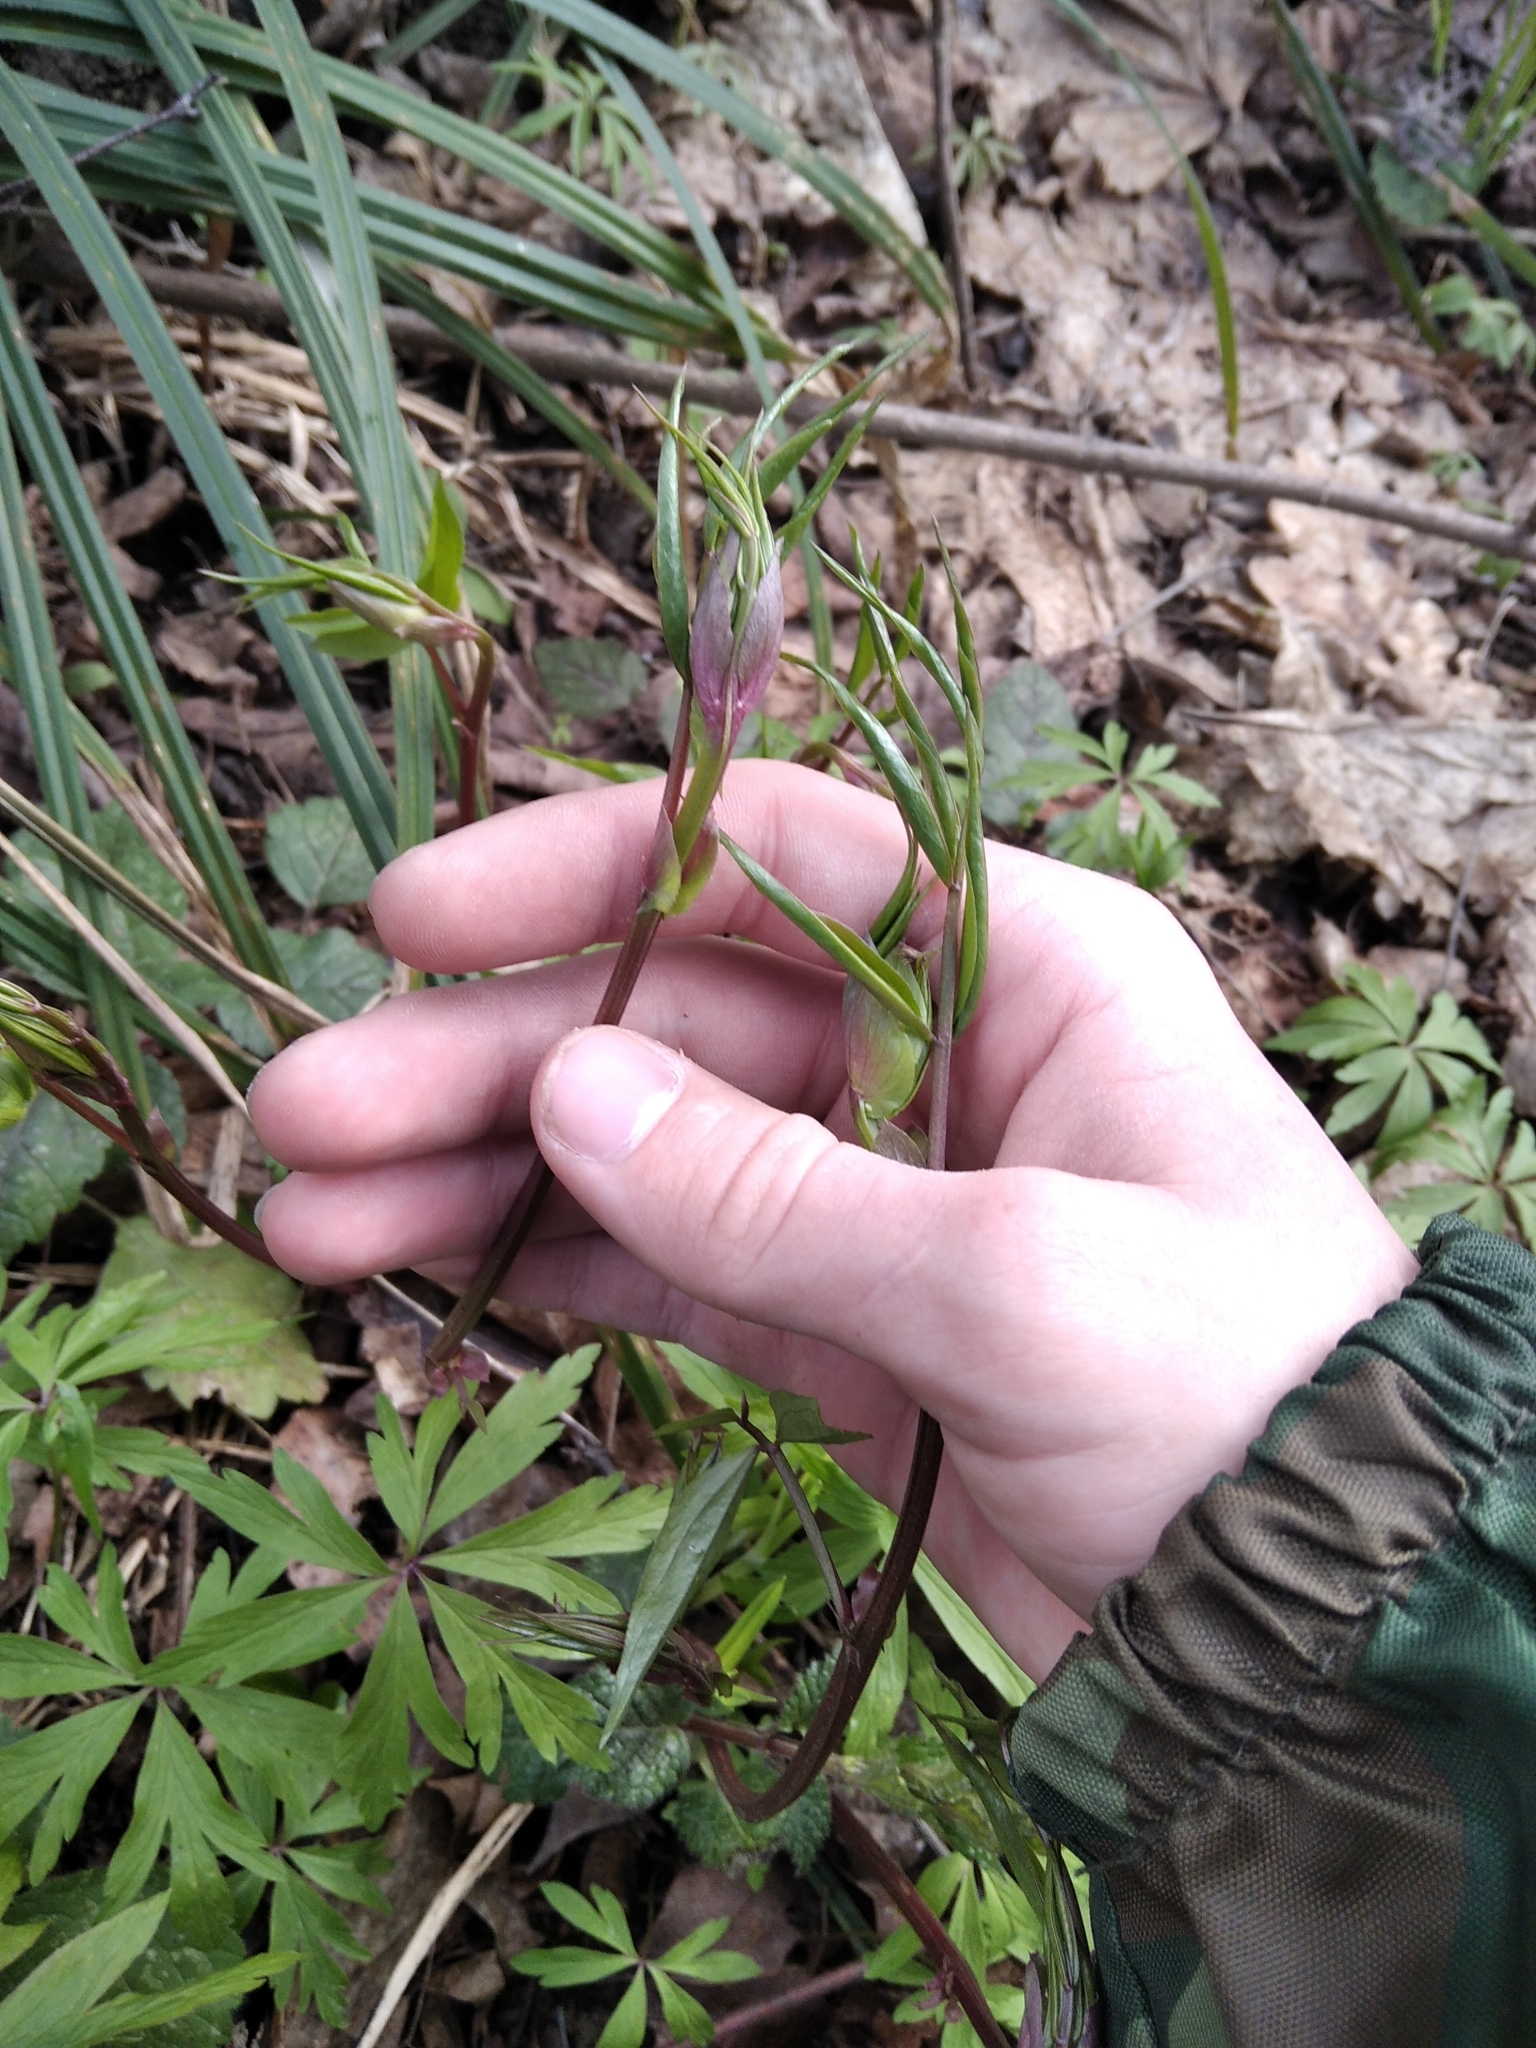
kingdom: Plantae
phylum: Tracheophyta
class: Magnoliopsida
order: Fabales
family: Fabaceae
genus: Lathyrus
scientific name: Lathyrus vernus
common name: Spring pea
